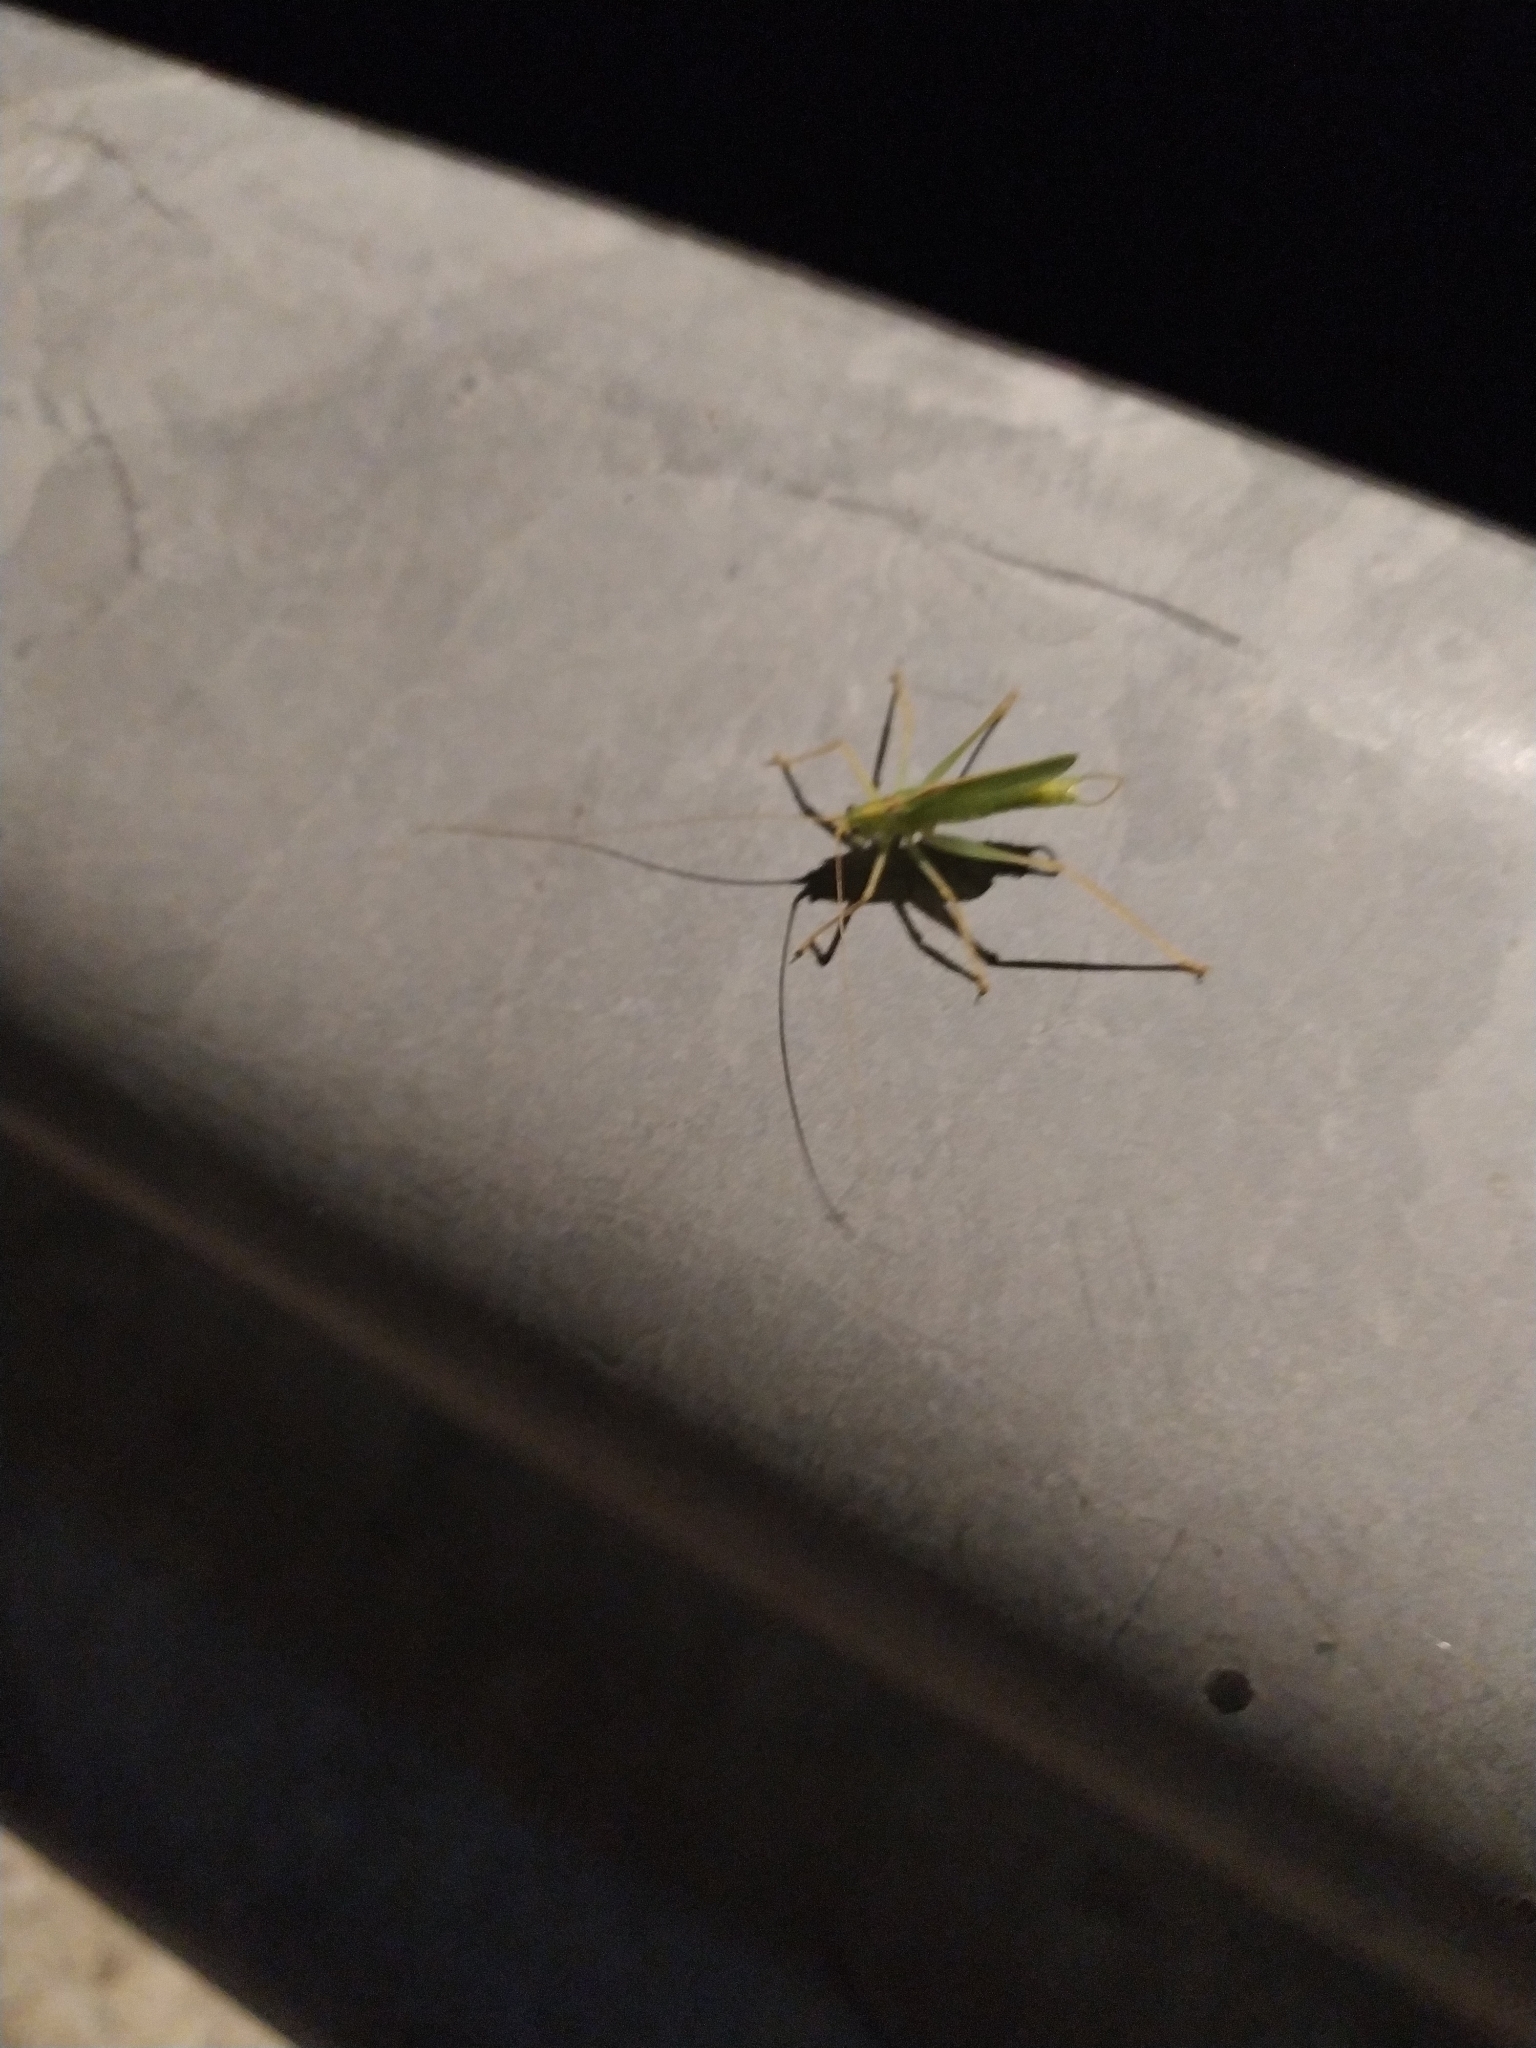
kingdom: Animalia
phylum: Arthropoda
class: Insecta
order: Orthoptera
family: Tettigoniidae
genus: Meconema
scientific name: Meconema thalassinum
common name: Oak bush-cricket
